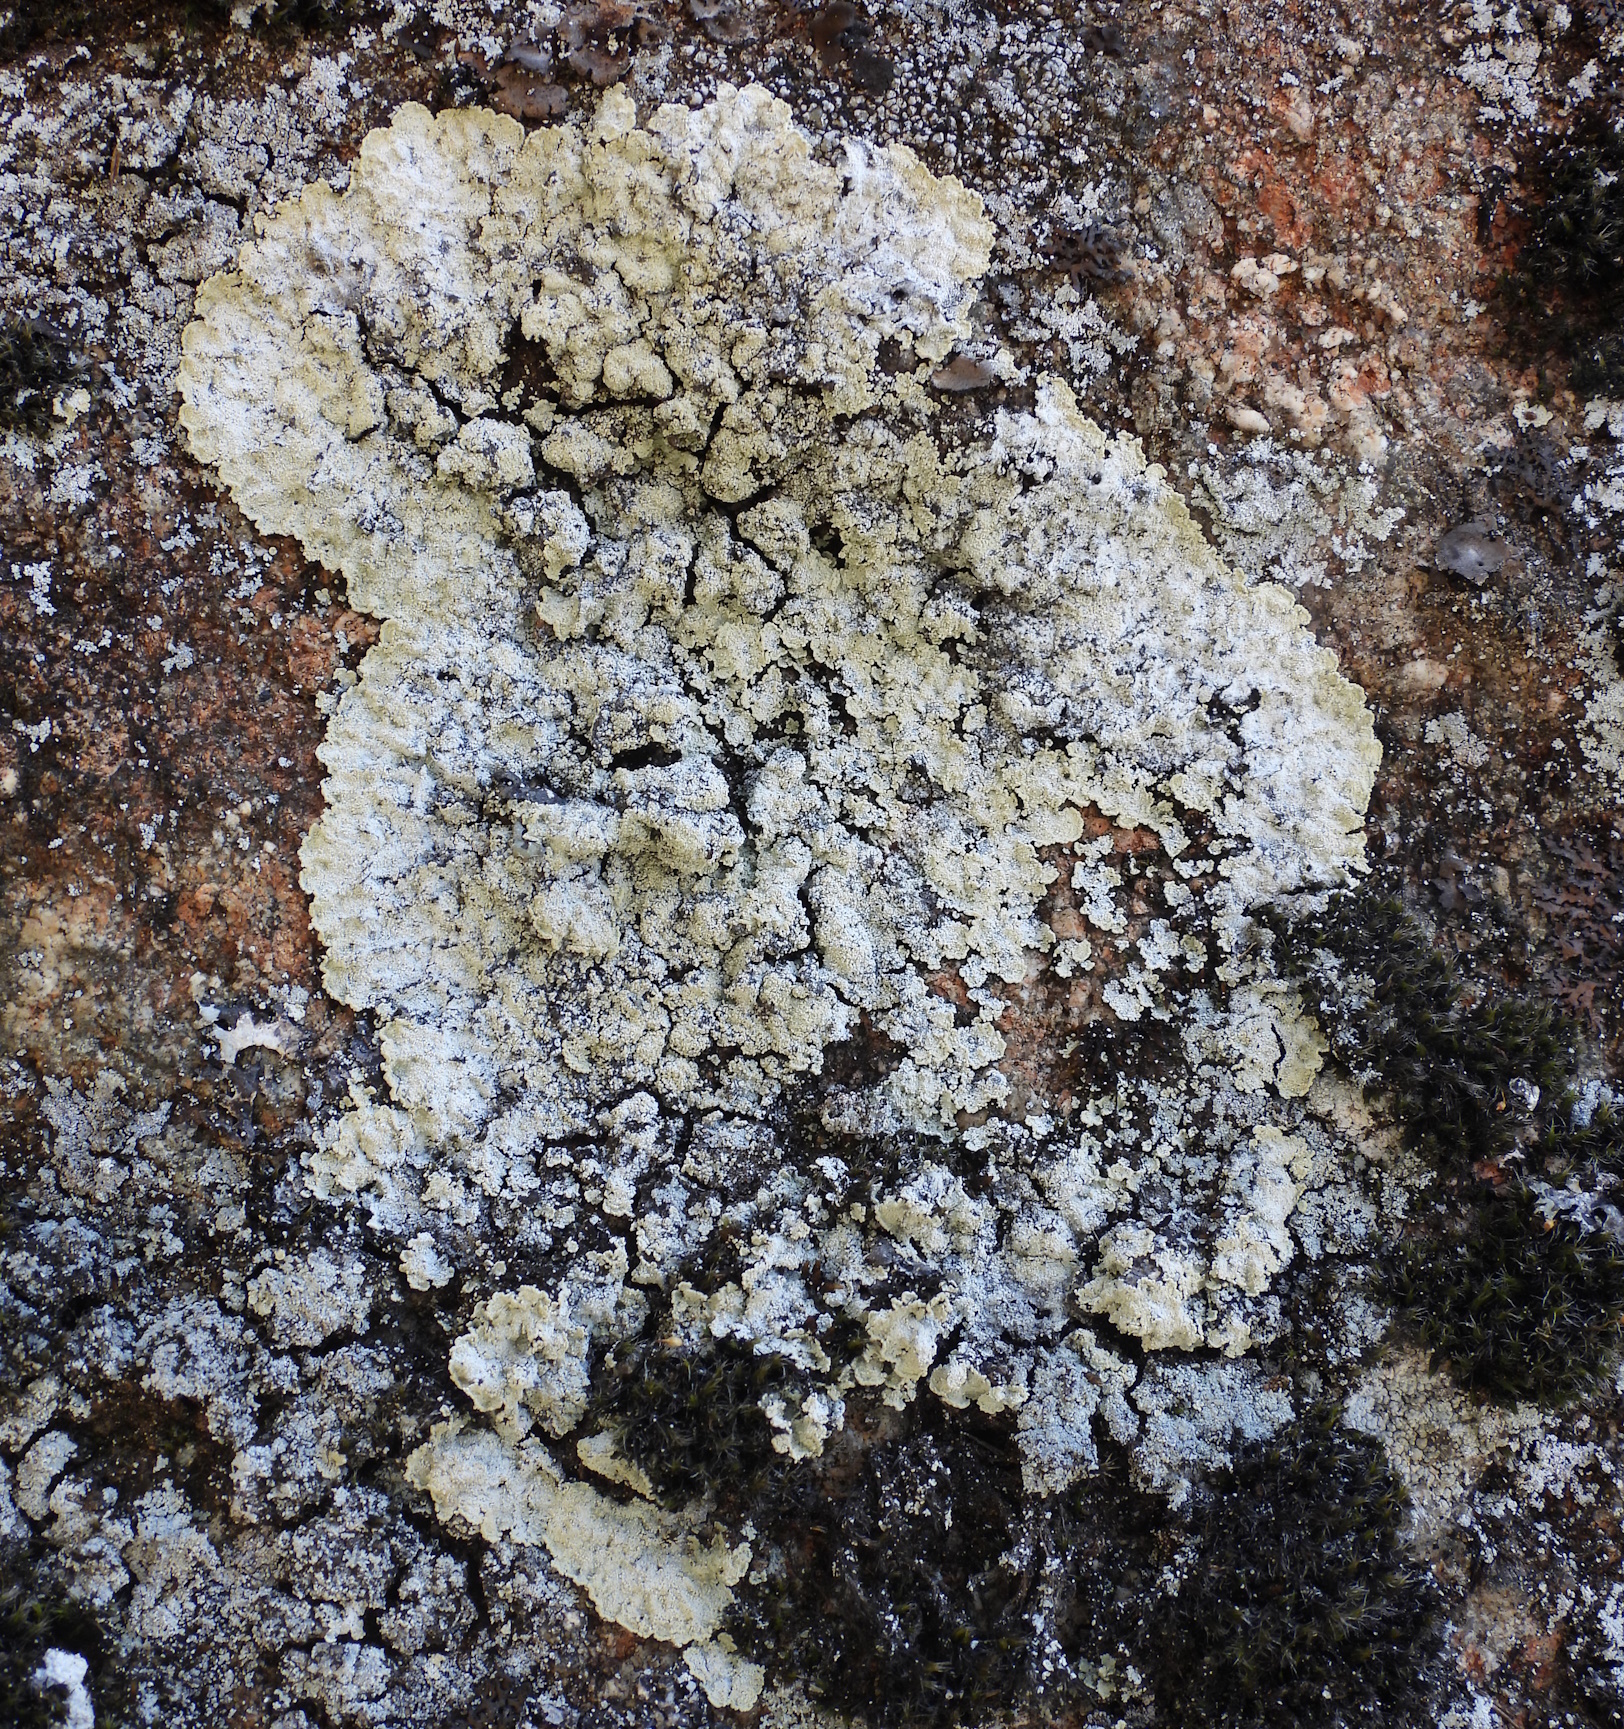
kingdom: Fungi
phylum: Ascomycota
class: Lecanoromycetes
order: Lecanorales
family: Stereocaulaceae
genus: Lepraria
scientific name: Lepraria membranacea
